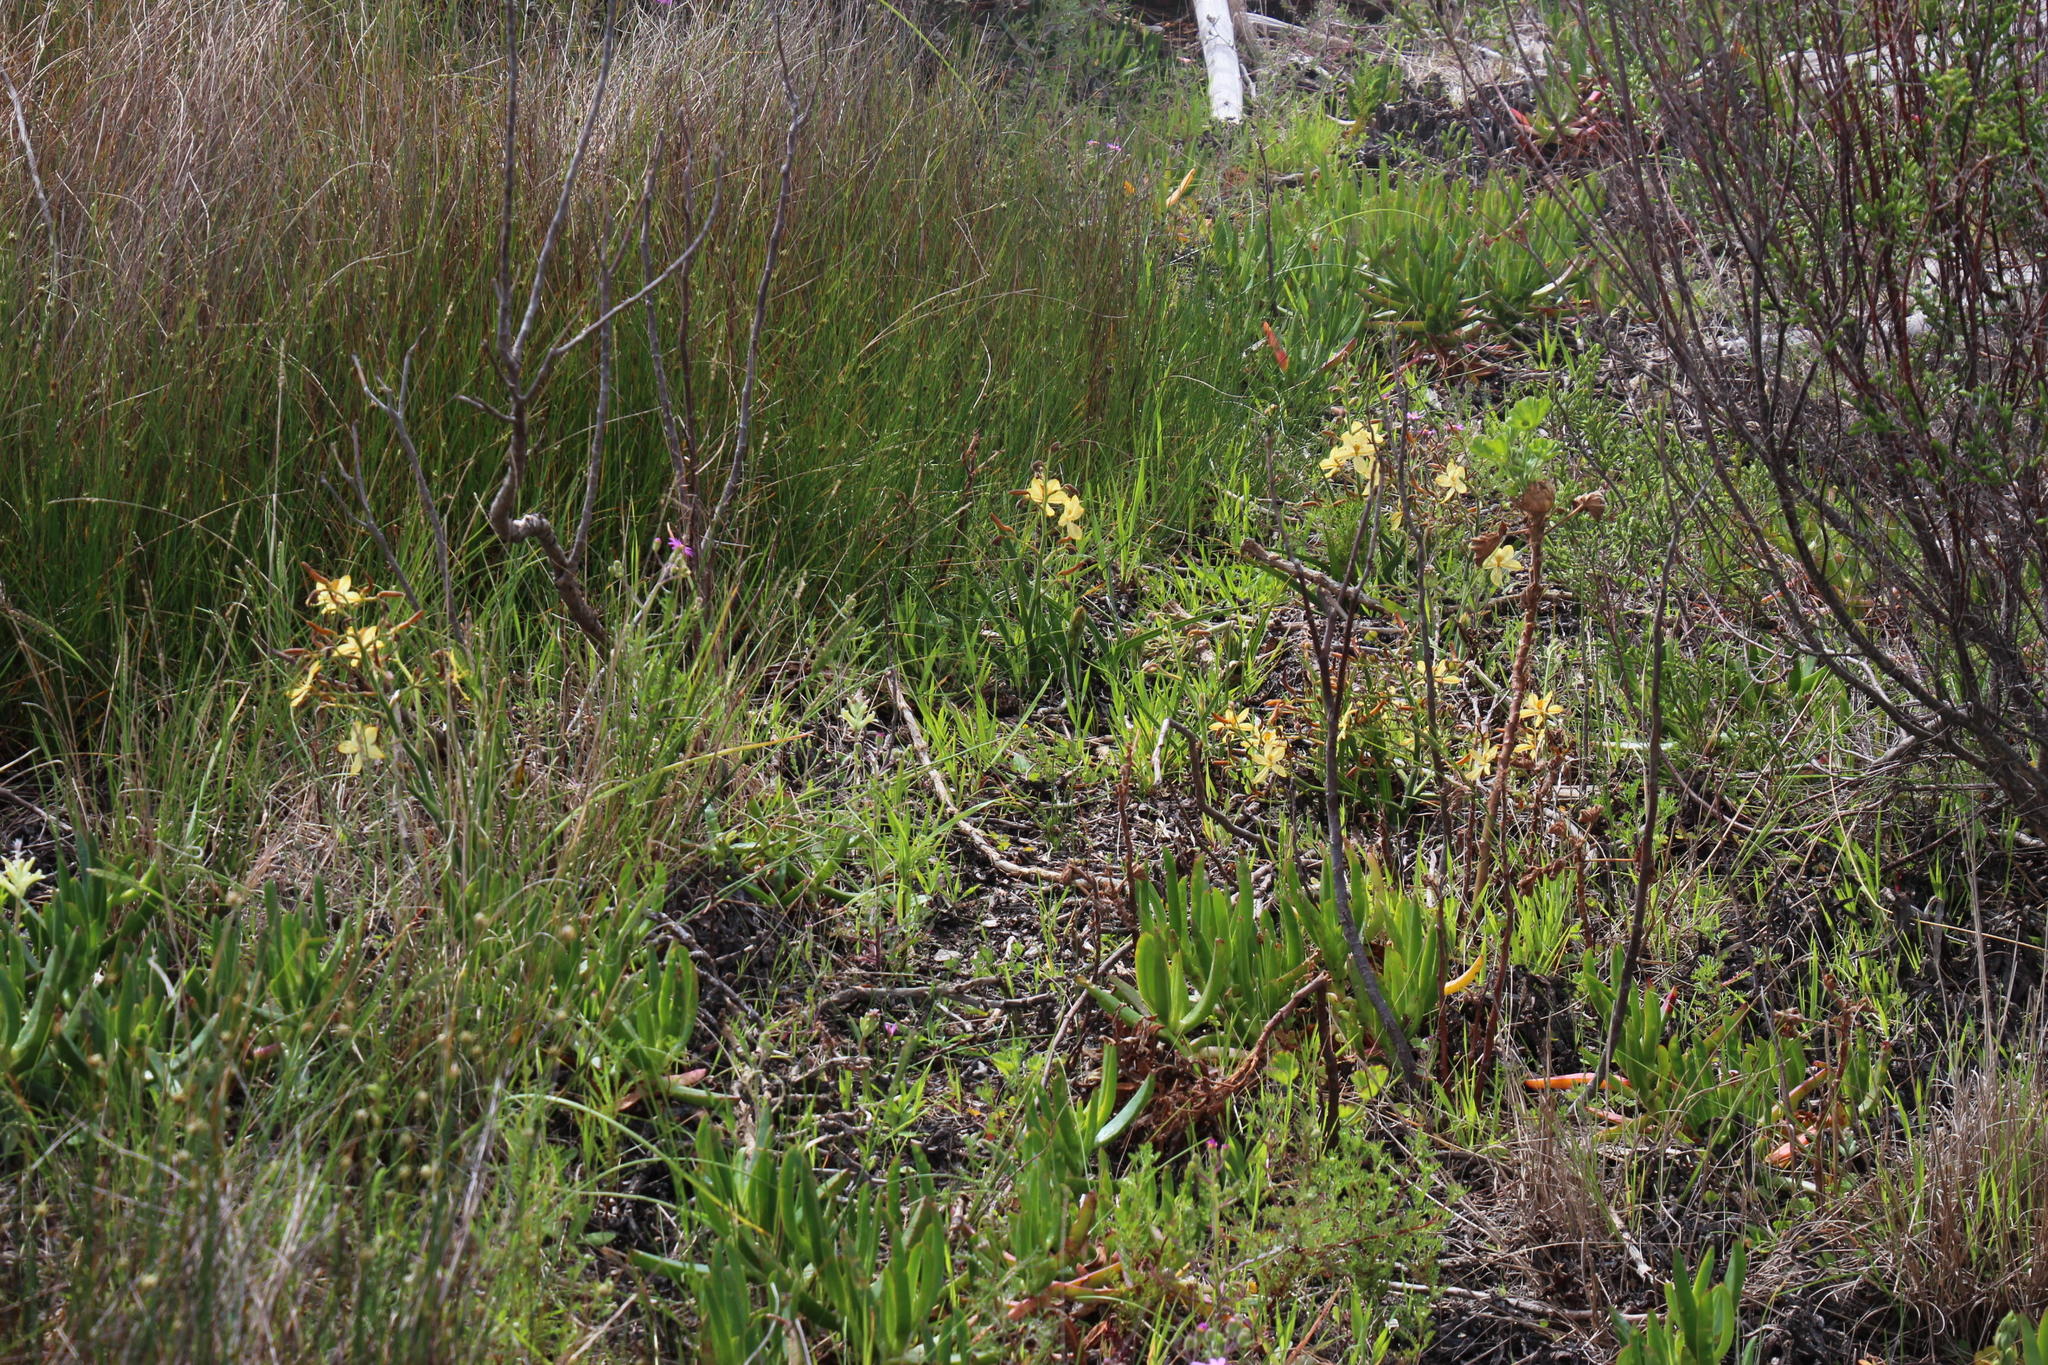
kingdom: Plantae
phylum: Tracheophyta
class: Liliopsida
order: Commelinales
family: Haemodoraceae
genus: Wachendorfia
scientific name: Wachendorfia paniculata
